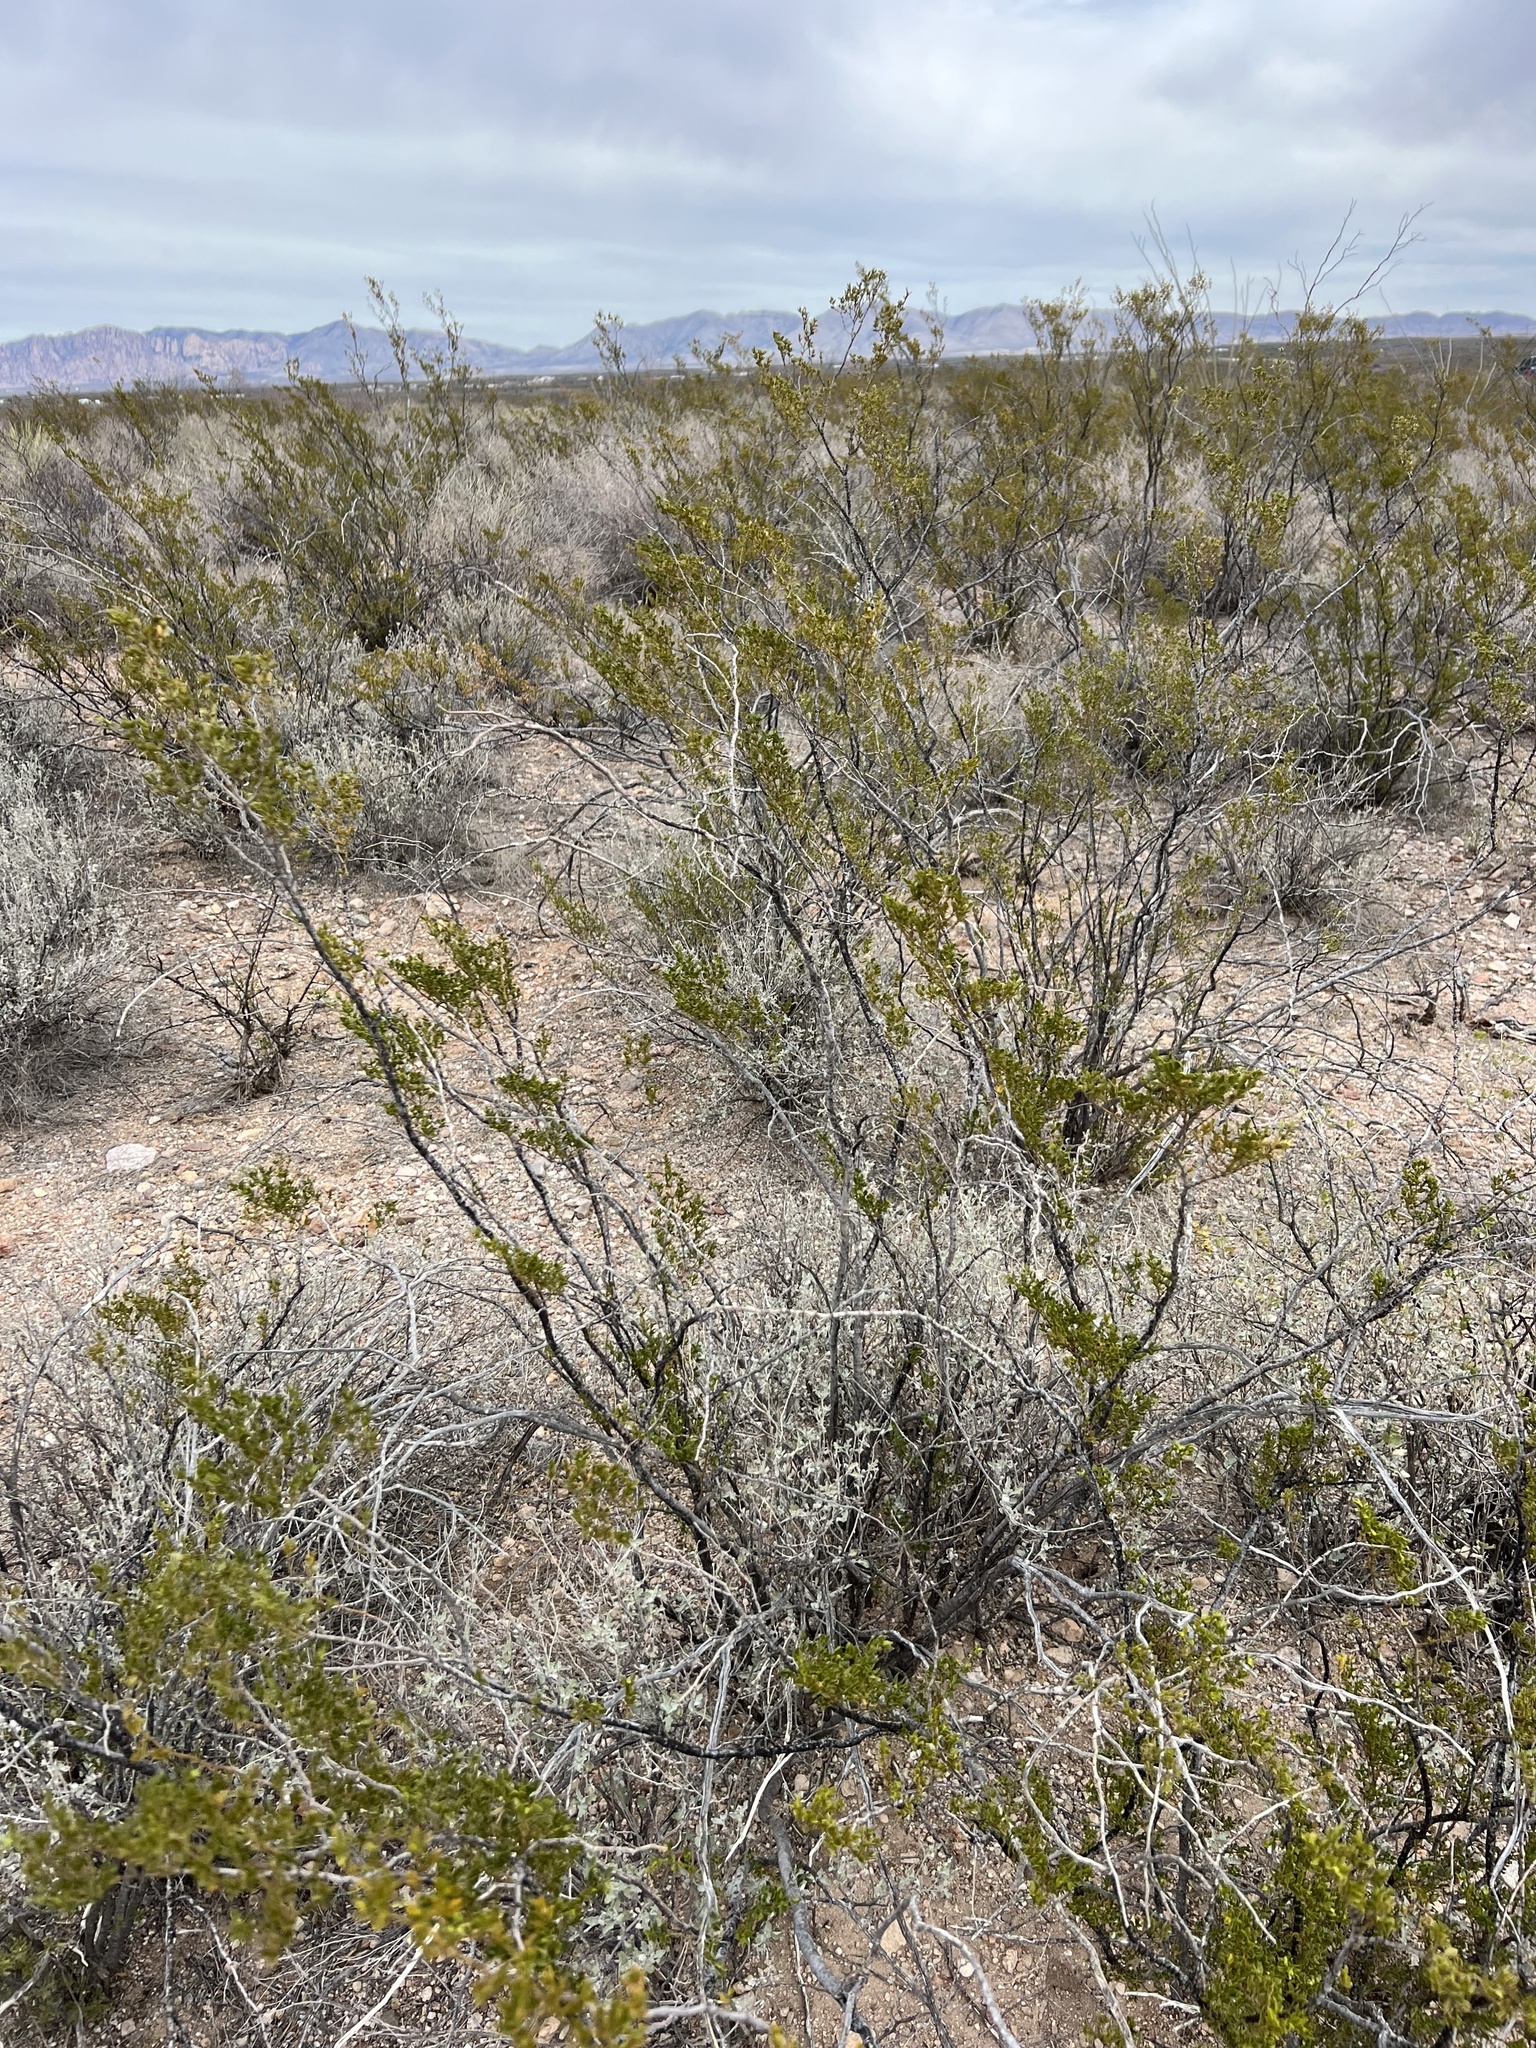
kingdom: Plantae
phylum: Tracheophyta
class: Magnoliopsida
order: Zygophyllales
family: Zygophyllaceae
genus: Larrea
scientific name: Larrea tridentata
